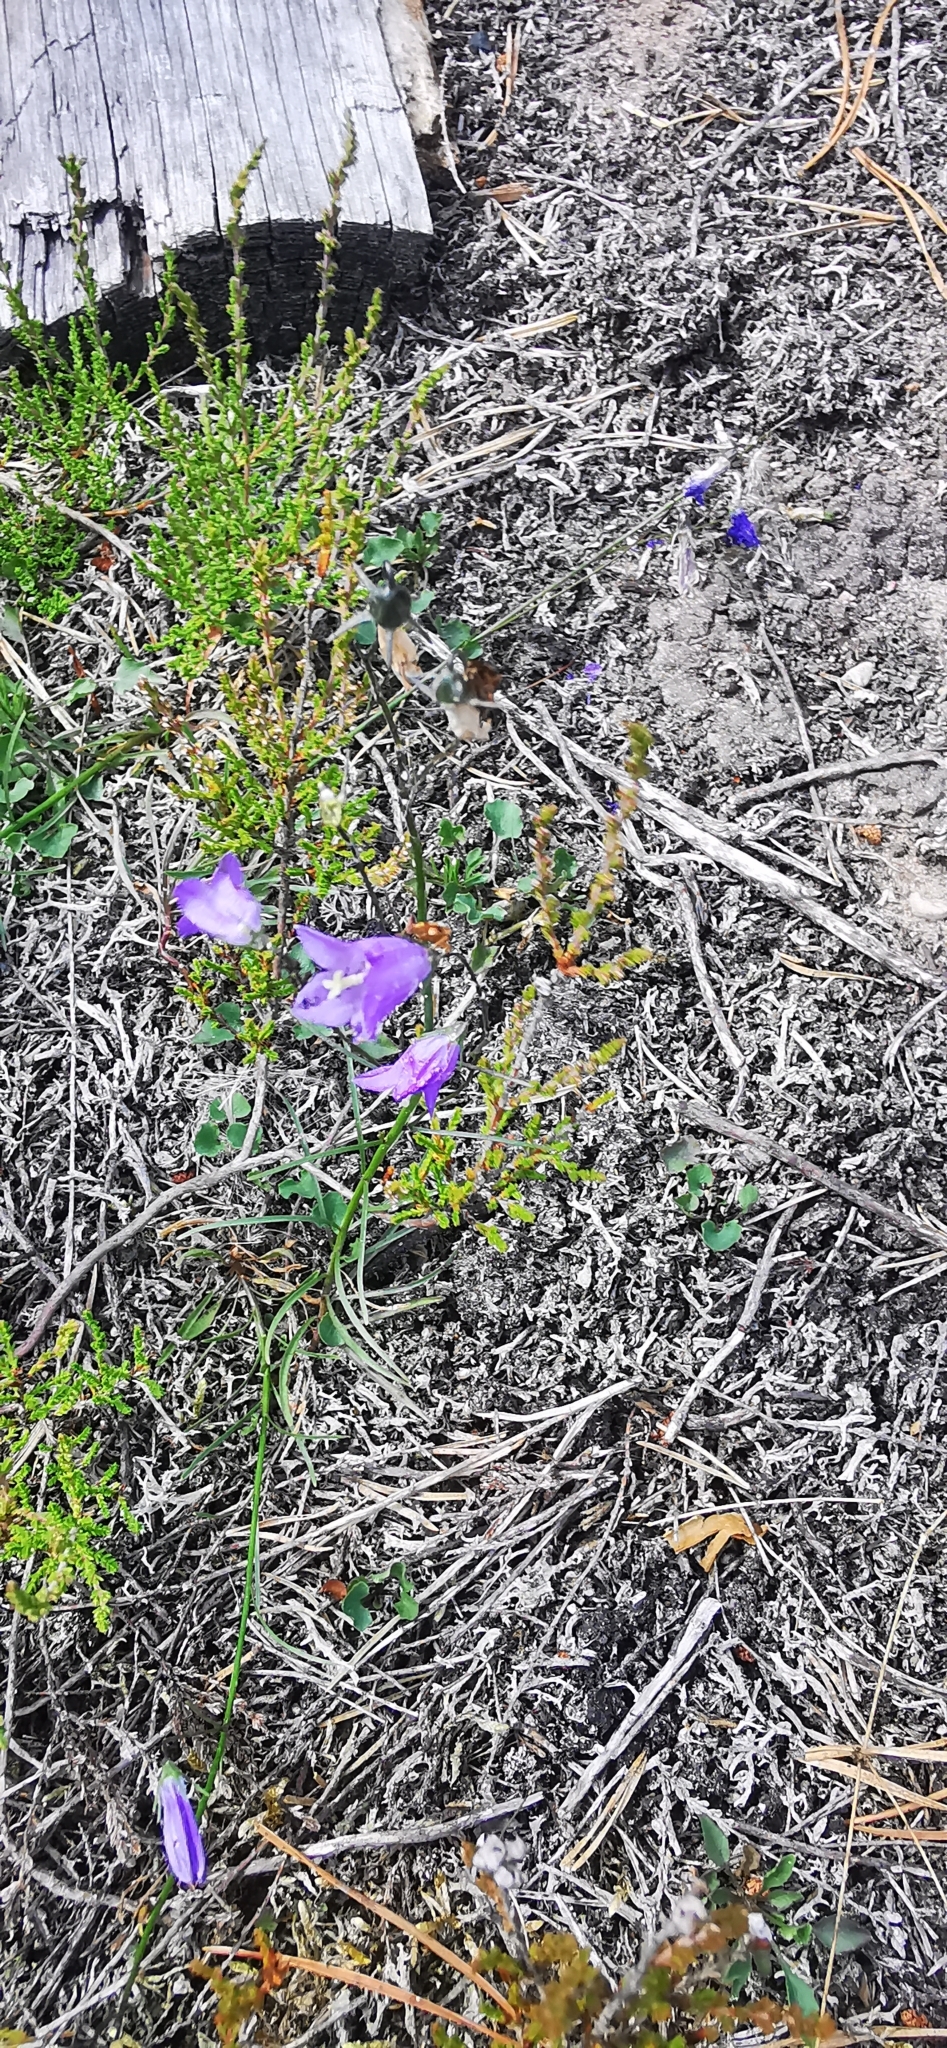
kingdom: Plantae
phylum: Tracheophyta
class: Magnoliopsida
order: Asterales
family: Campanulaceae
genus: Campanula
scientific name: Campanula rotundifolia
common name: Harebell
